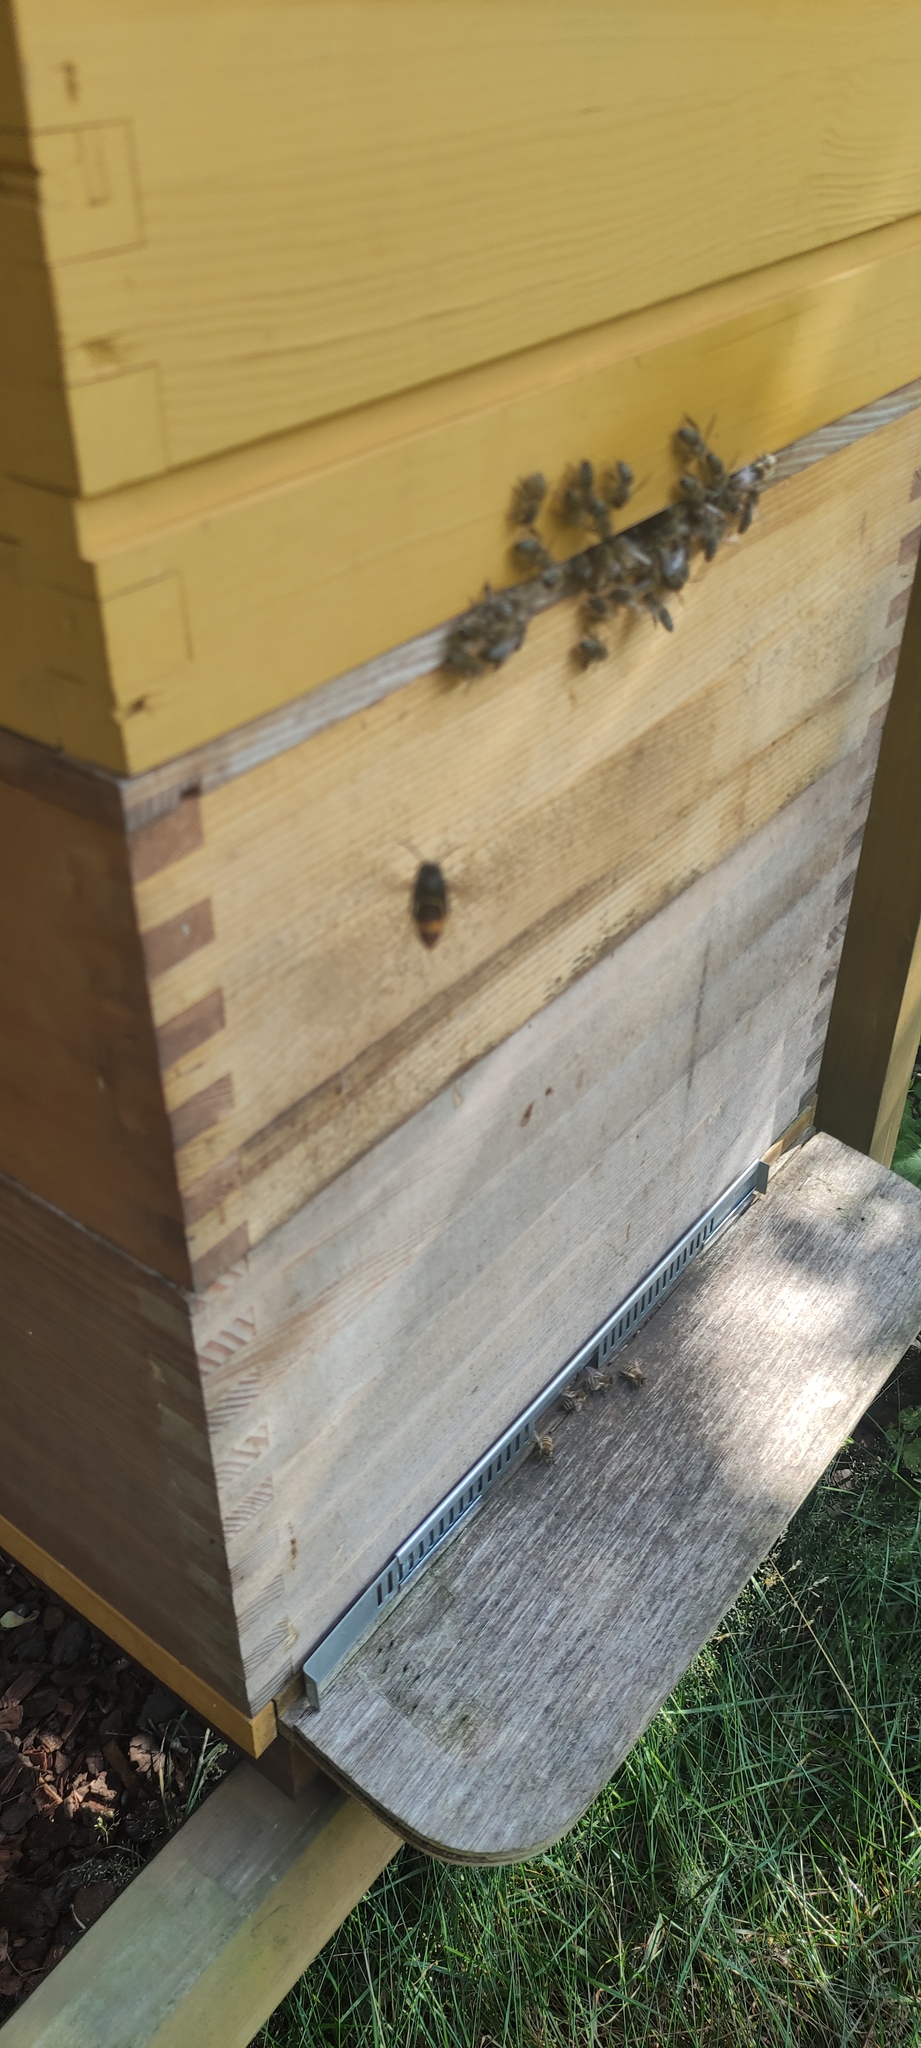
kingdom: Animalia
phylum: Arthropoda
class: Insecta
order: Hymenoptera
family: Vespidae
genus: Vespa
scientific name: Vespa velutina
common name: Asian hornet
